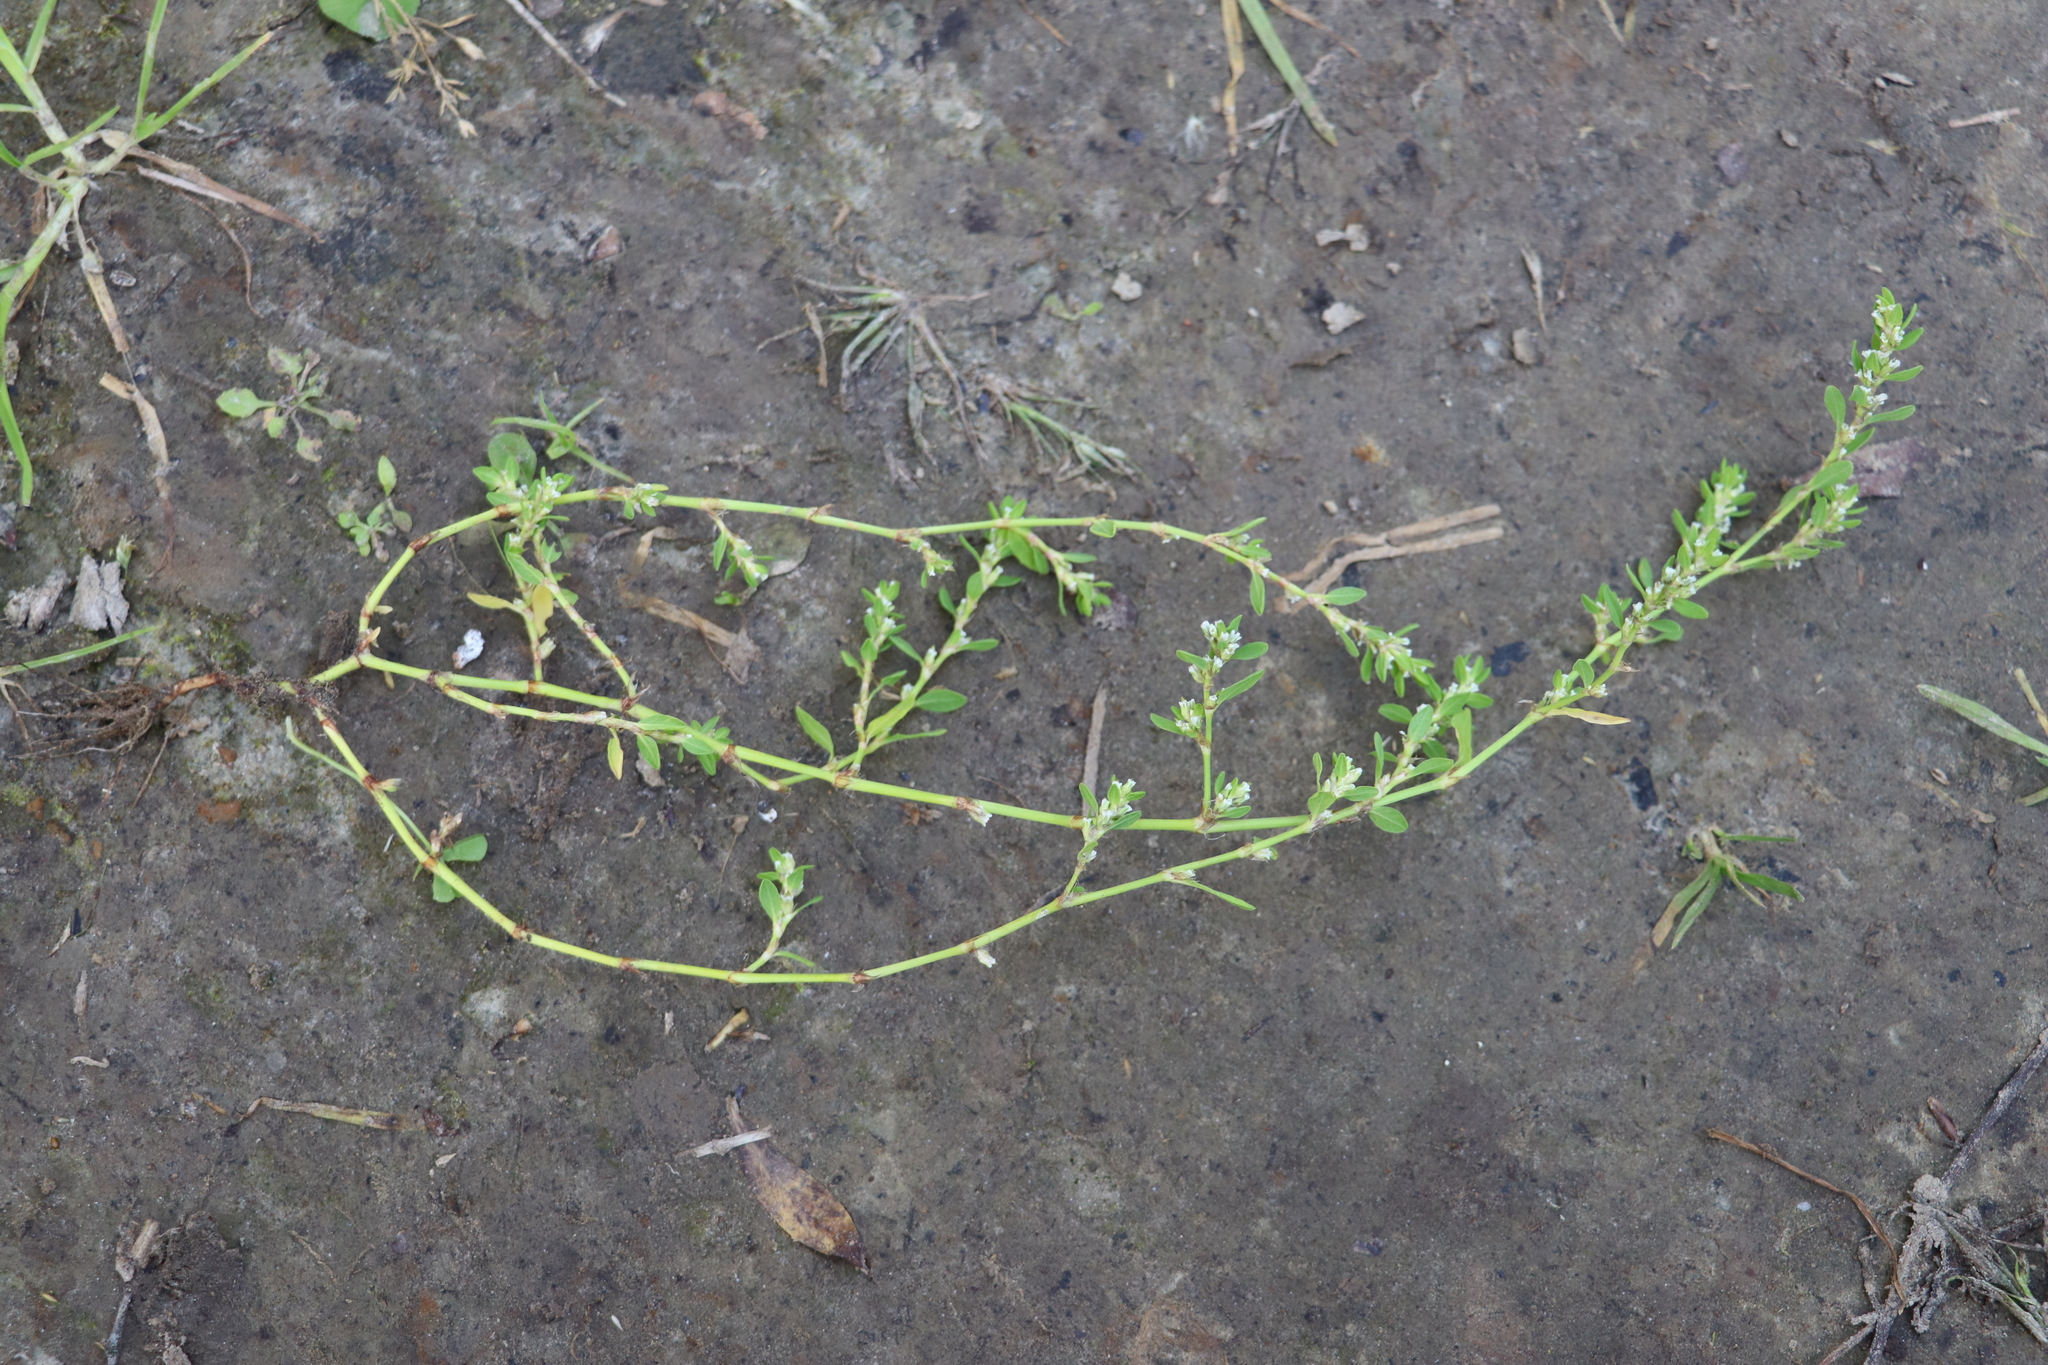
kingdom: Plantae
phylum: Tracheophyta
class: Magnoliopsida
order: Caryophyllales
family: Polygonaceae
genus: Polygonum
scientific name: Polygonum aviculare
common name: Prostrate knotweed
